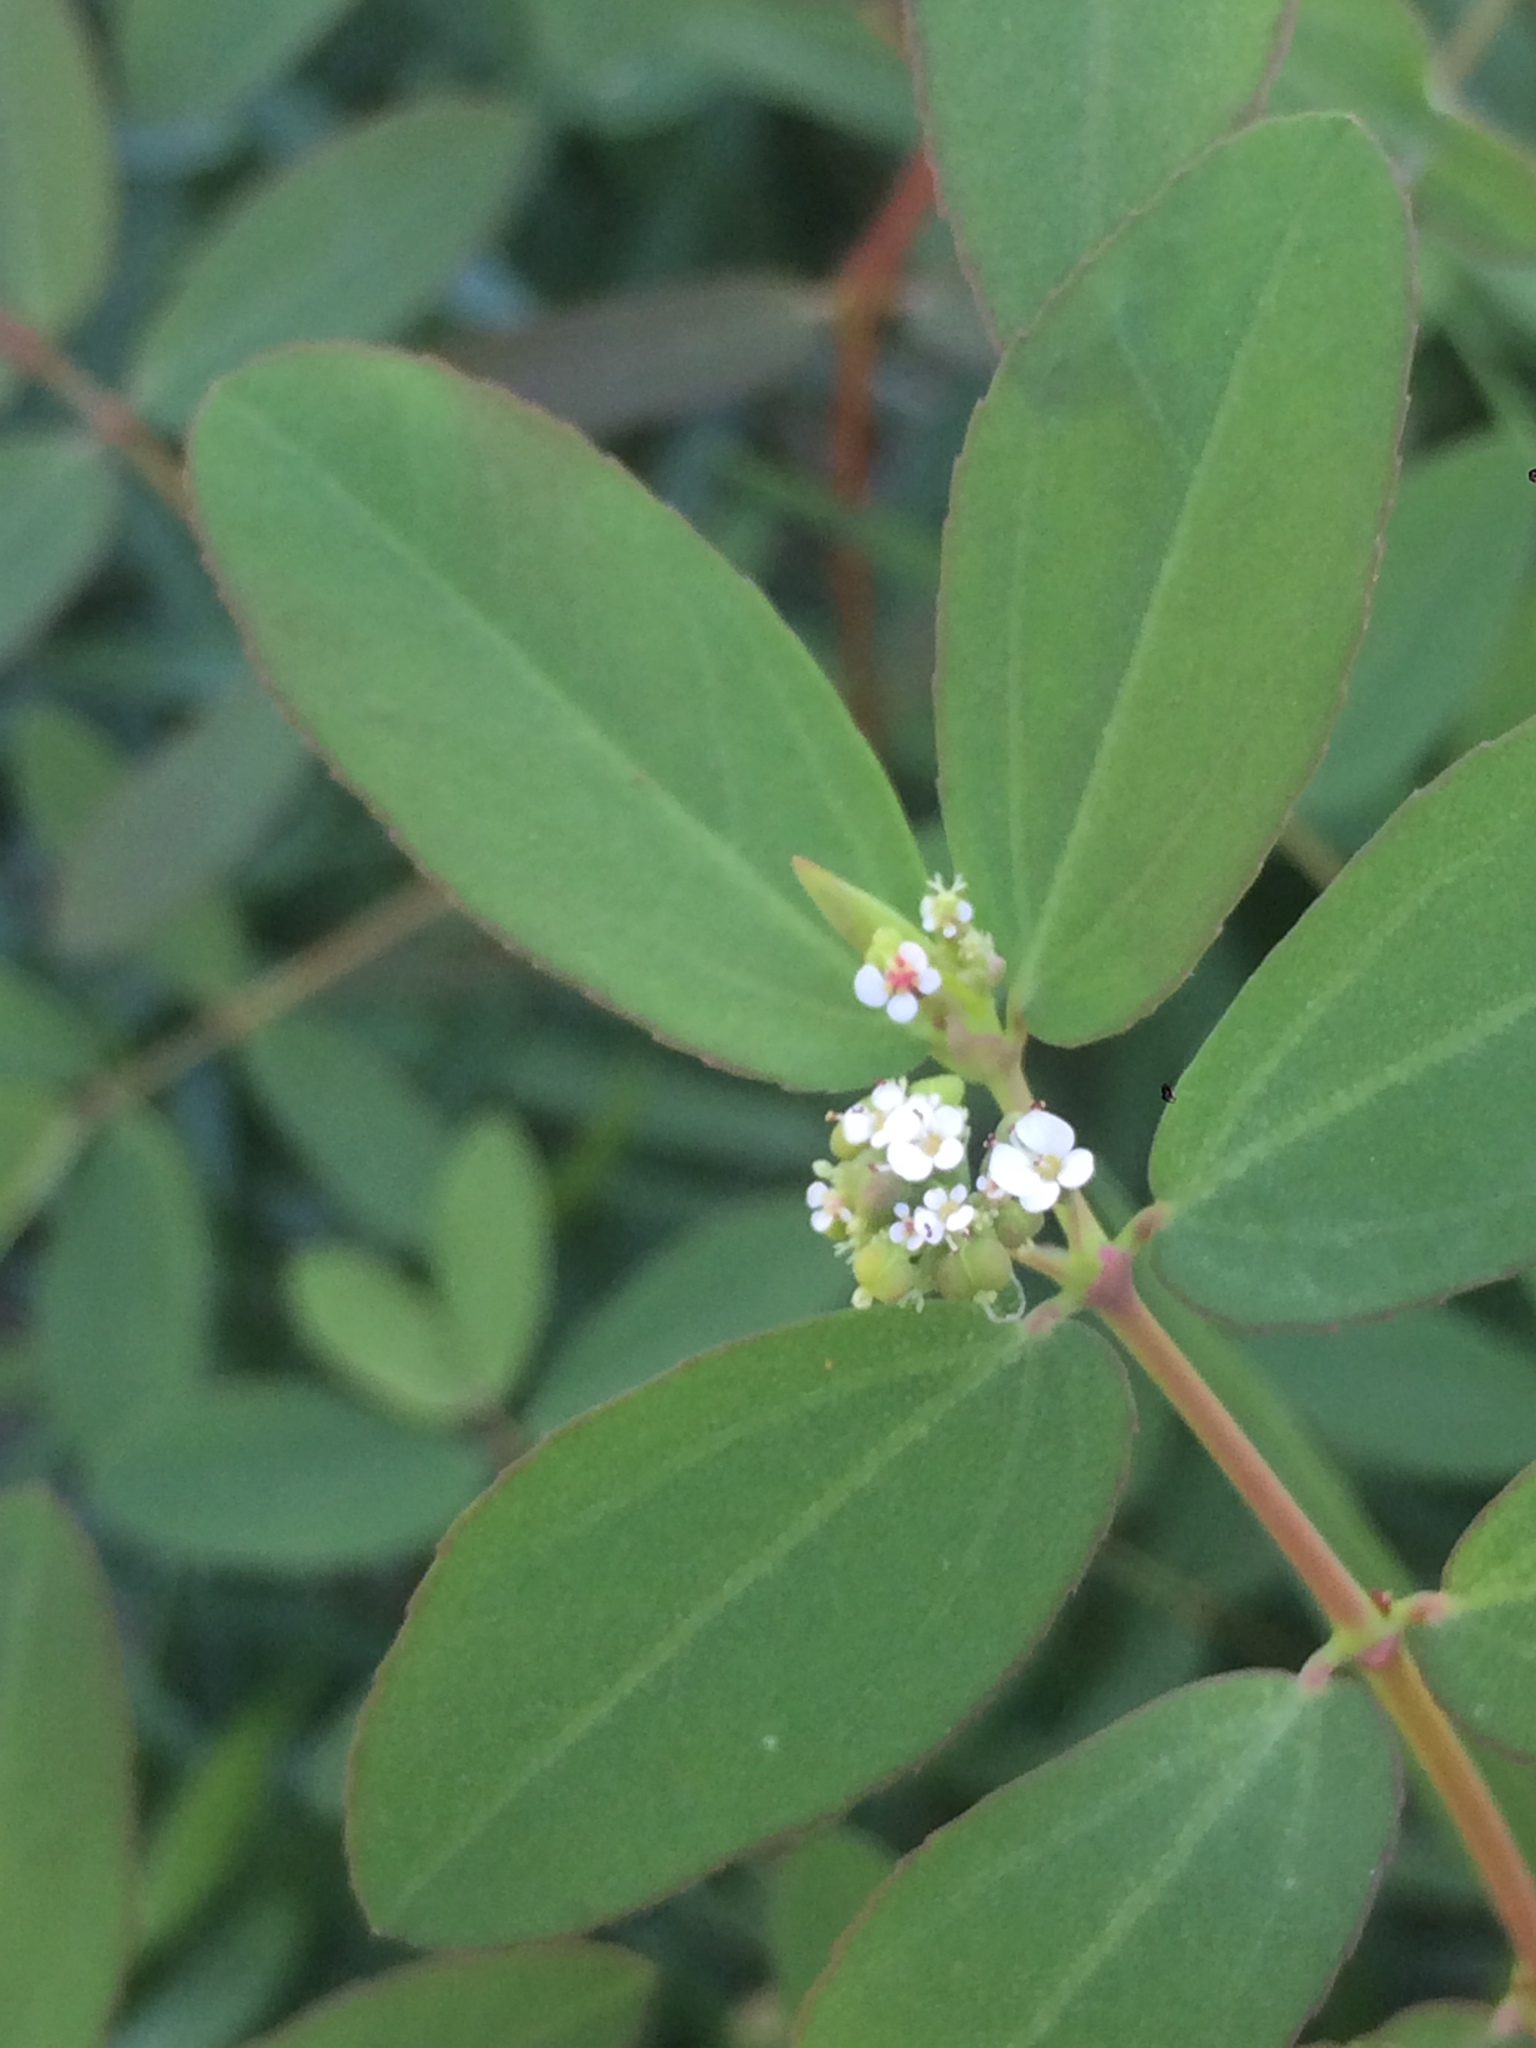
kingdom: Plantae
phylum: Tracheophyta
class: Magnoliopsida
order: Malpighiales
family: Euphorbiaceae
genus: Euphorbia
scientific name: Euphorbia hypericifolia
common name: Graceful sandmat
